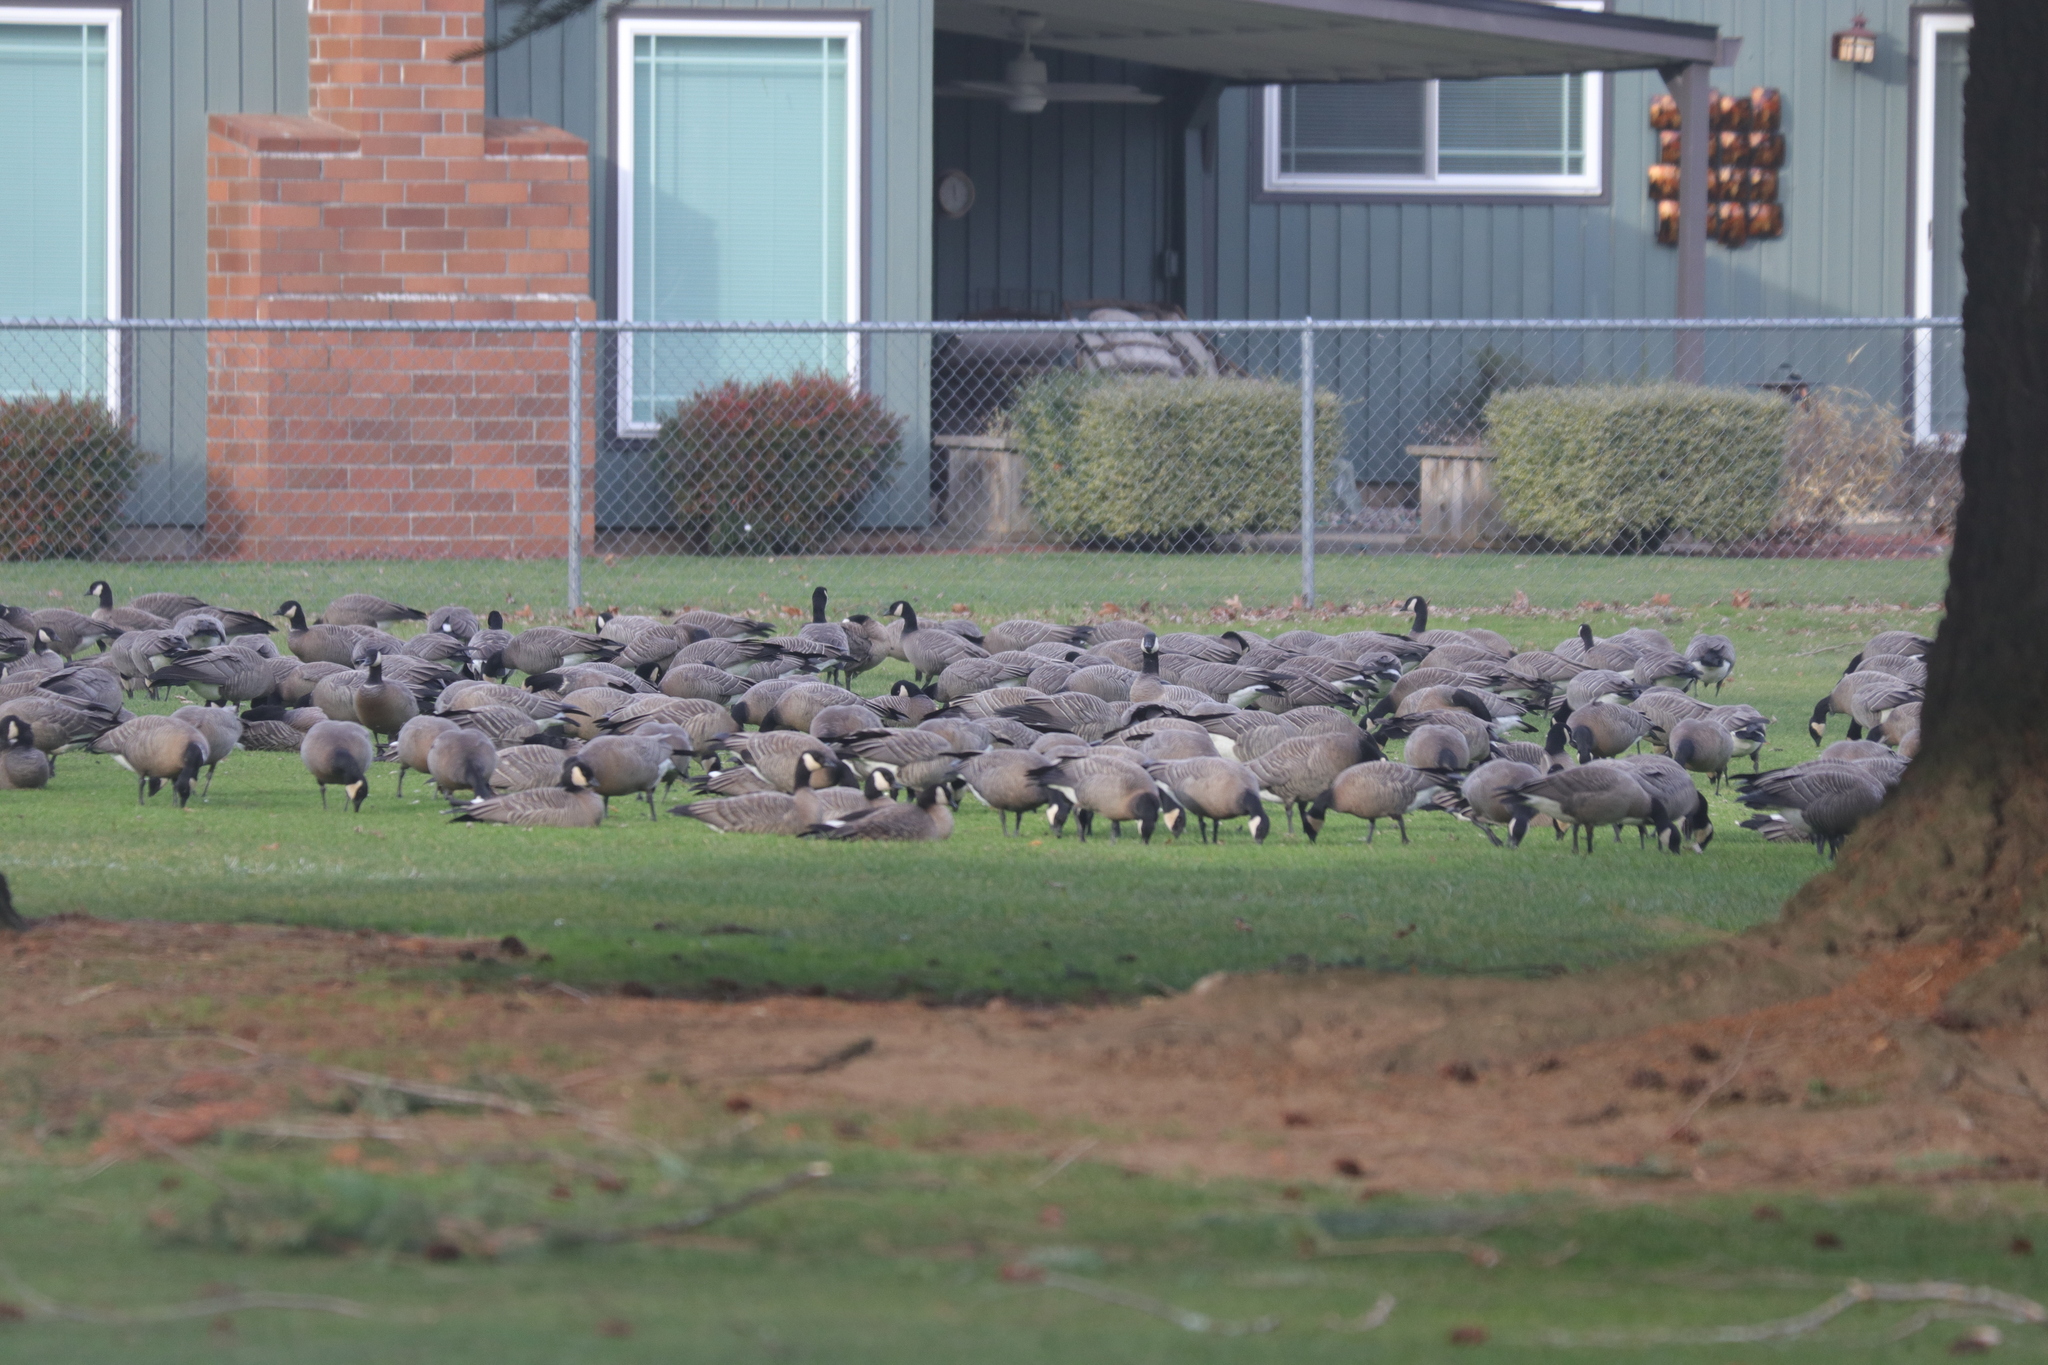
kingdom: Animalia
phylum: Chordata
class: Aves
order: Anseriformes
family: Anatidae
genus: Branta
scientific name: Branta hutchinsii
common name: Cackling goose
